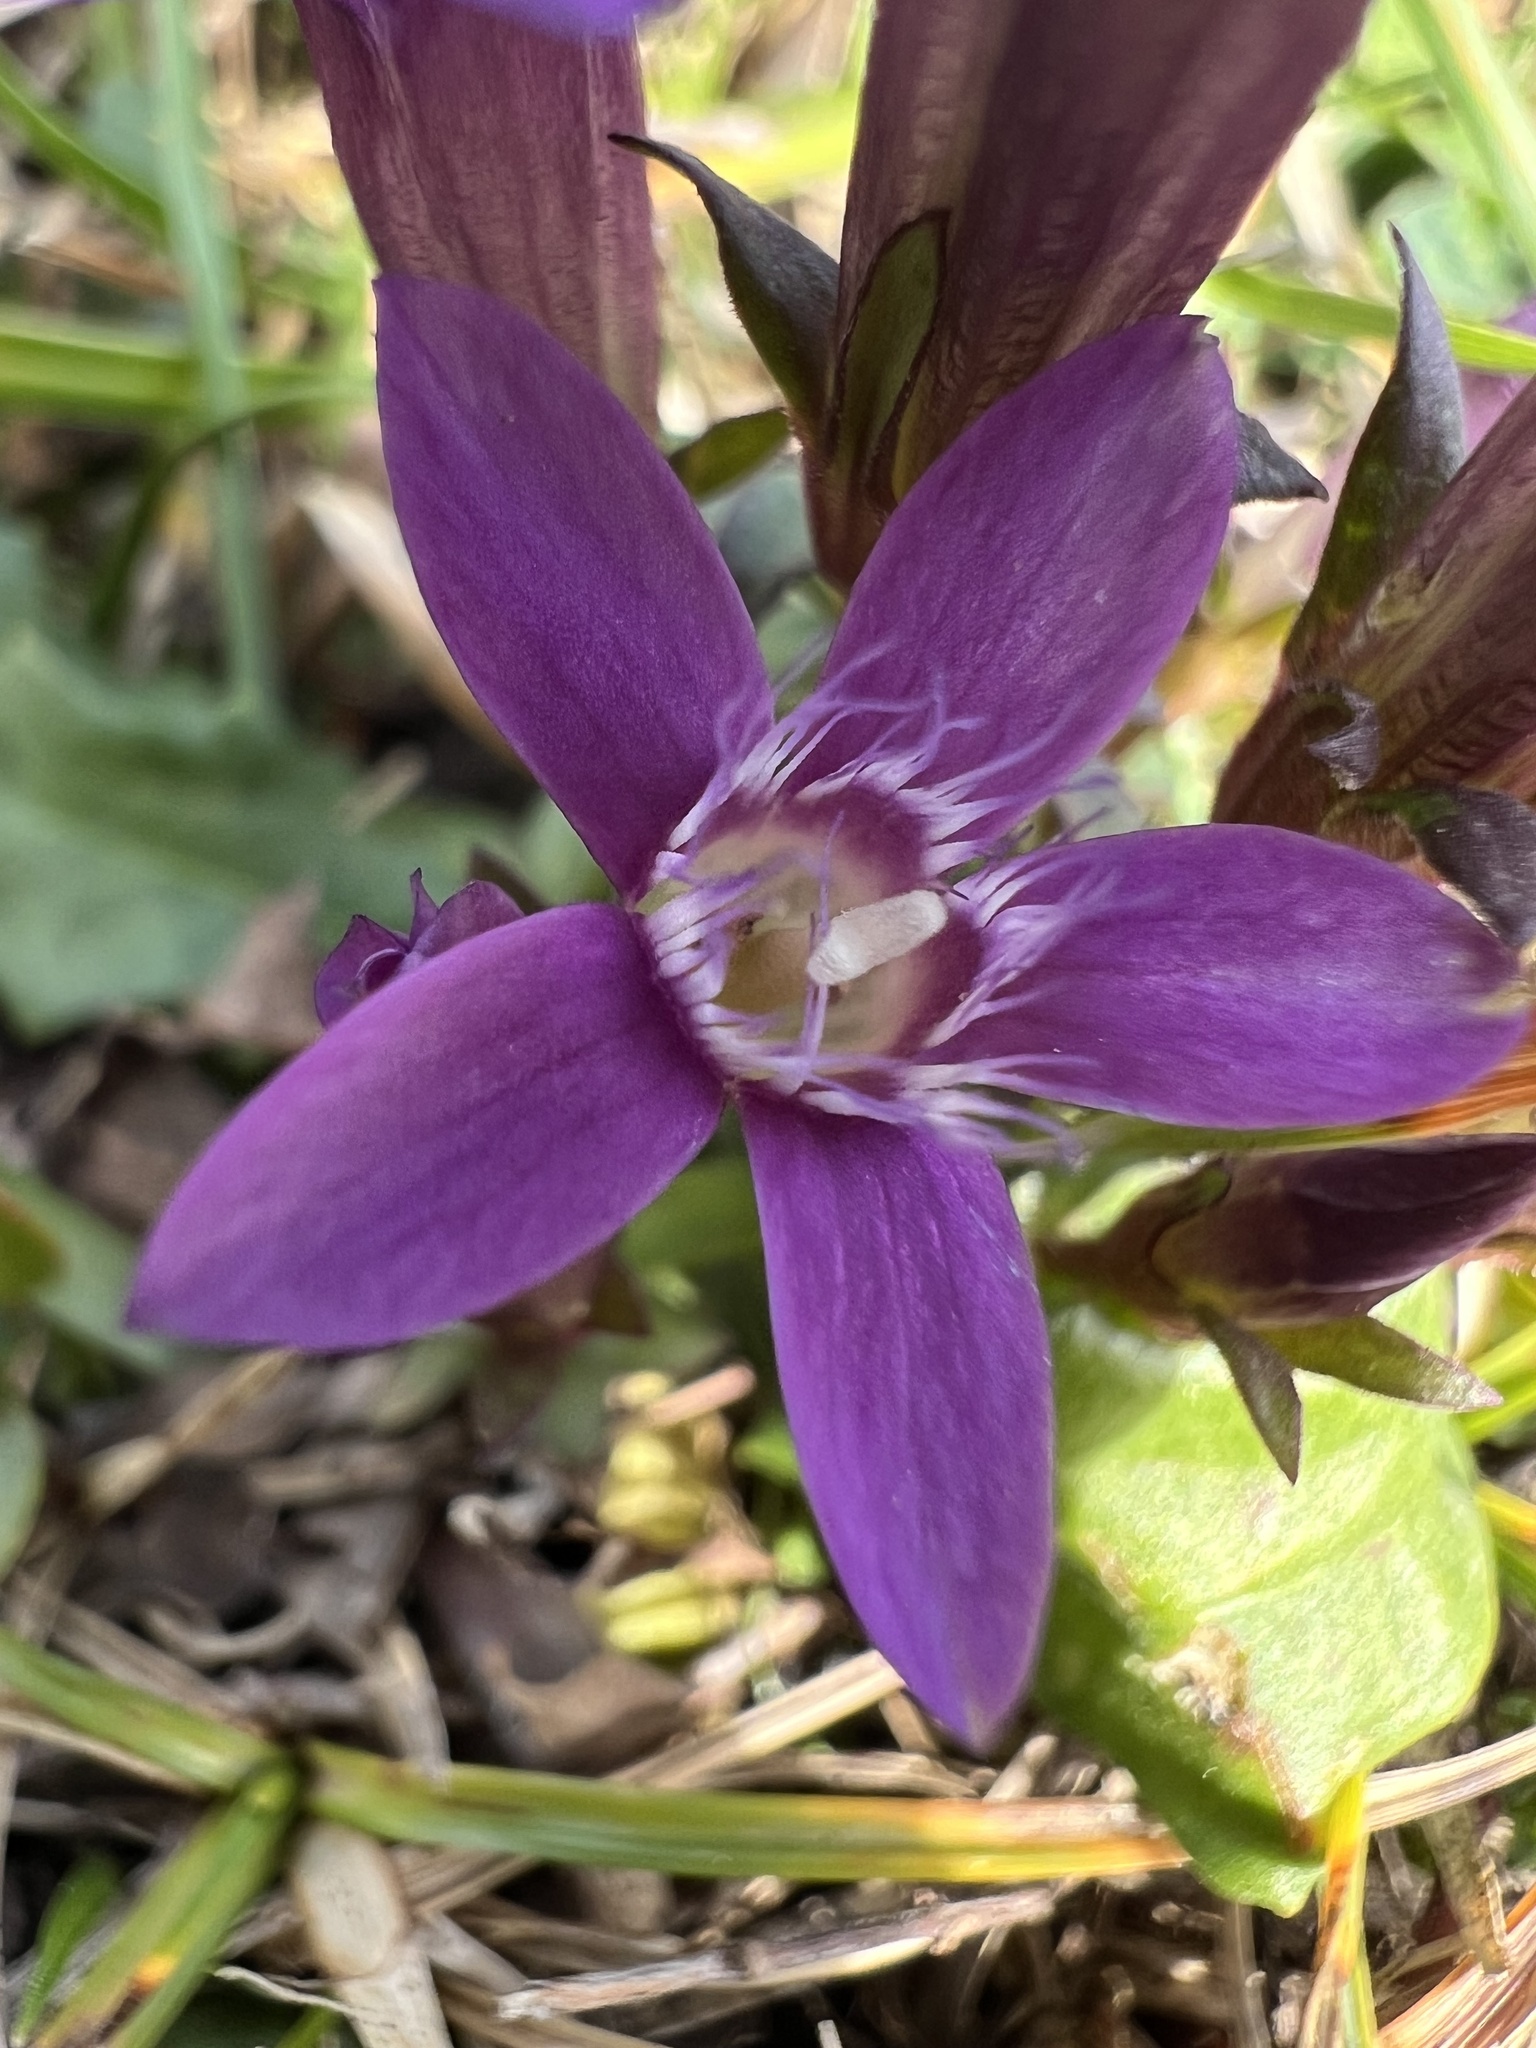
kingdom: Plantae
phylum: Tracheophyta
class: Magnoliopsida
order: Gentianales
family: Gentianaceae
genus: Gentianella
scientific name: Gentianella germanica
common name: Chiltern-gentian
